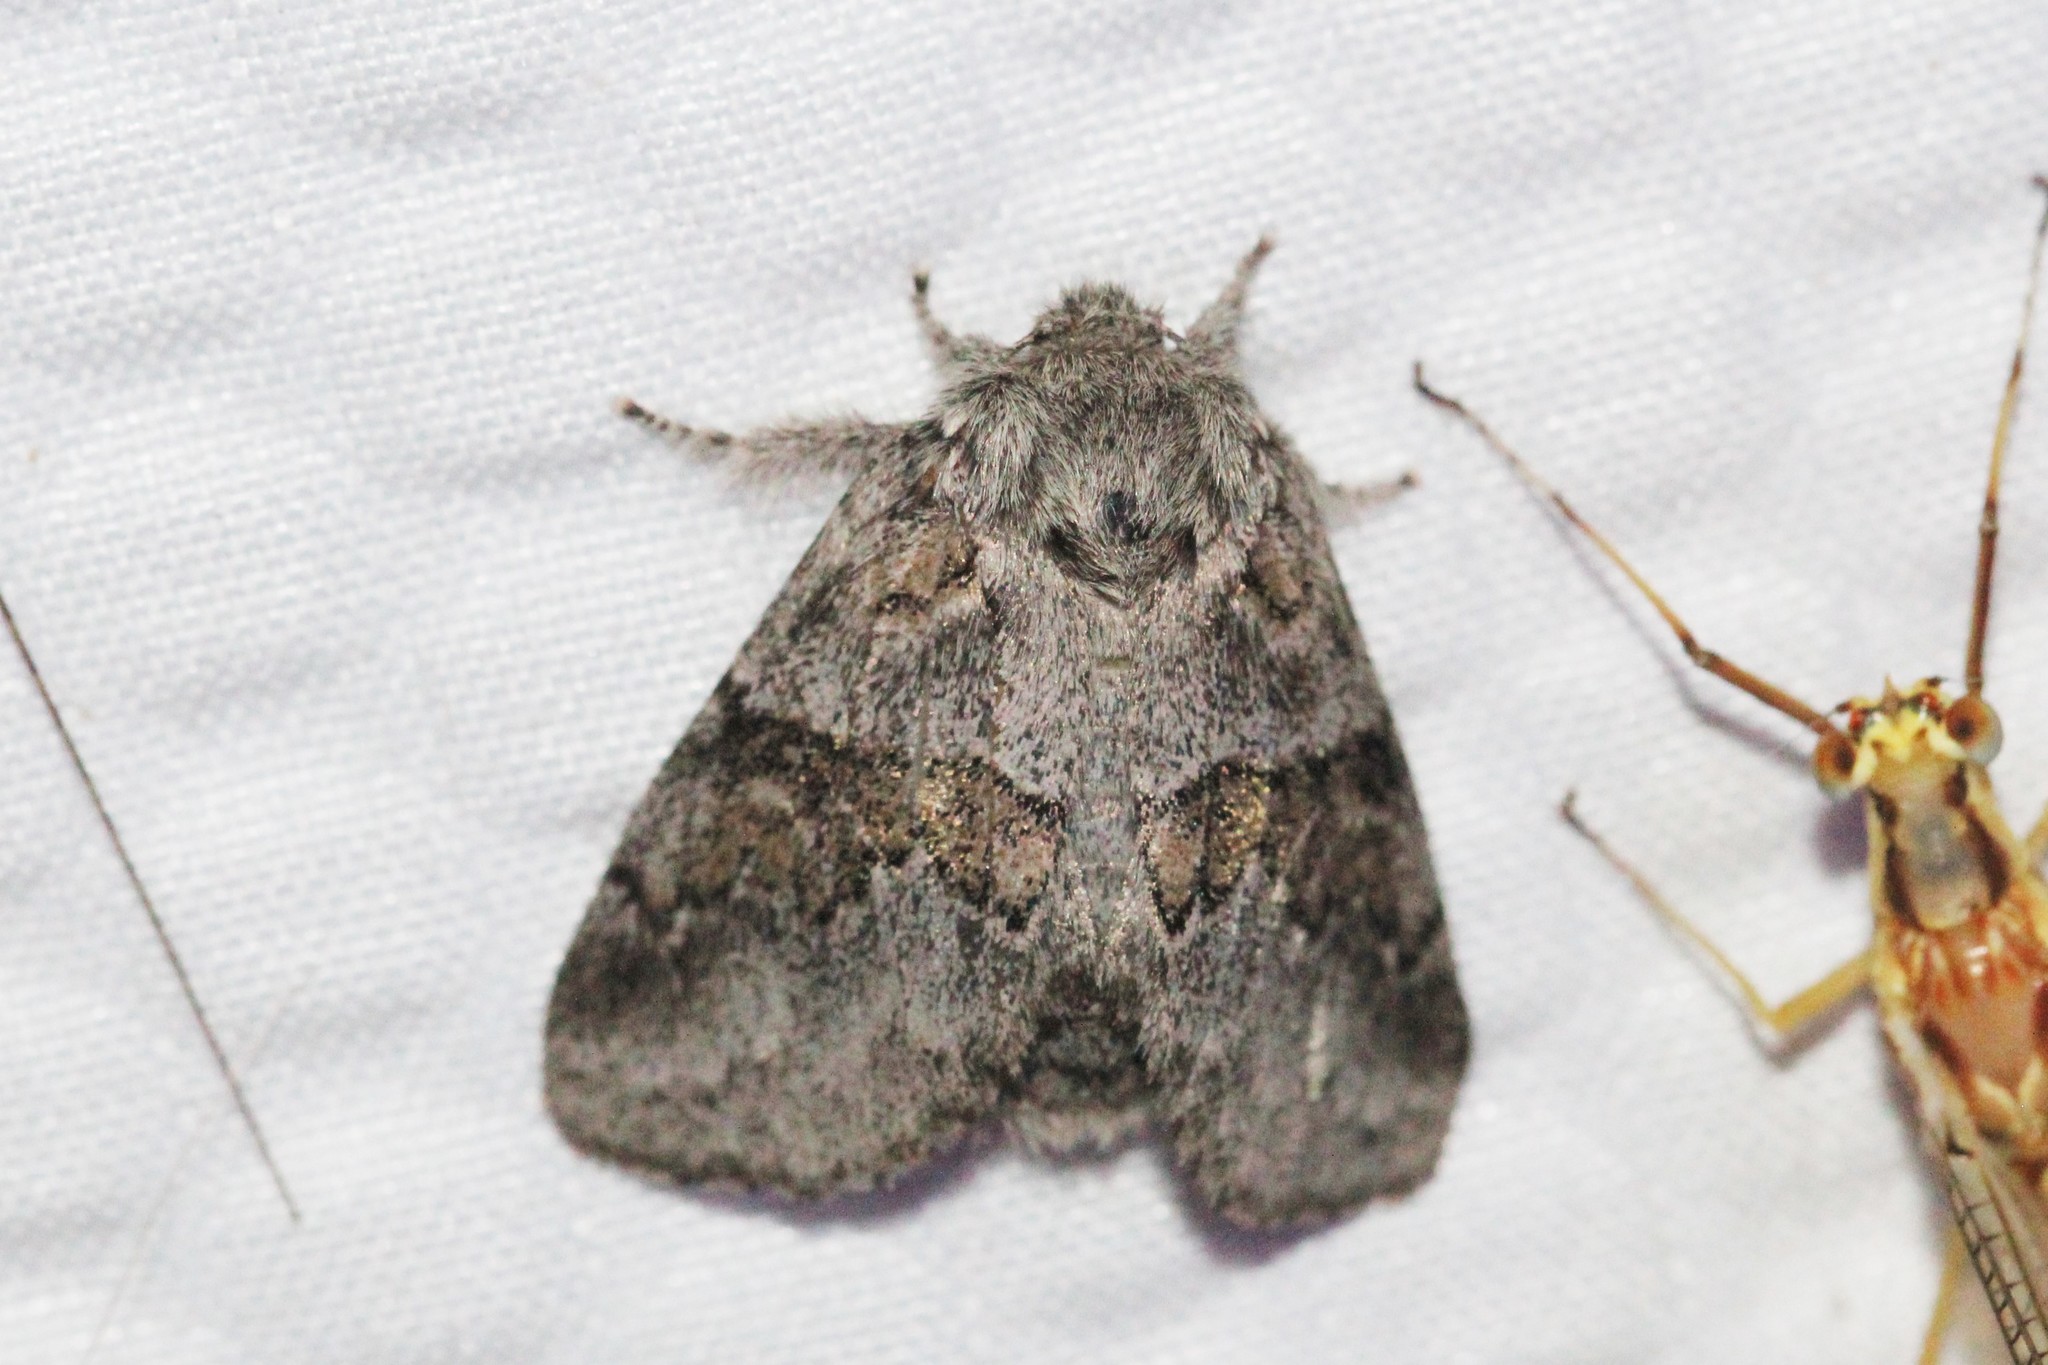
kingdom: Animalia
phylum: Arthropoda
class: Insecta
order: Lepidoptera
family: Notodontidae
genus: Gluphisia
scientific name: Gluphisia septentrionis
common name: Common gluphisia
